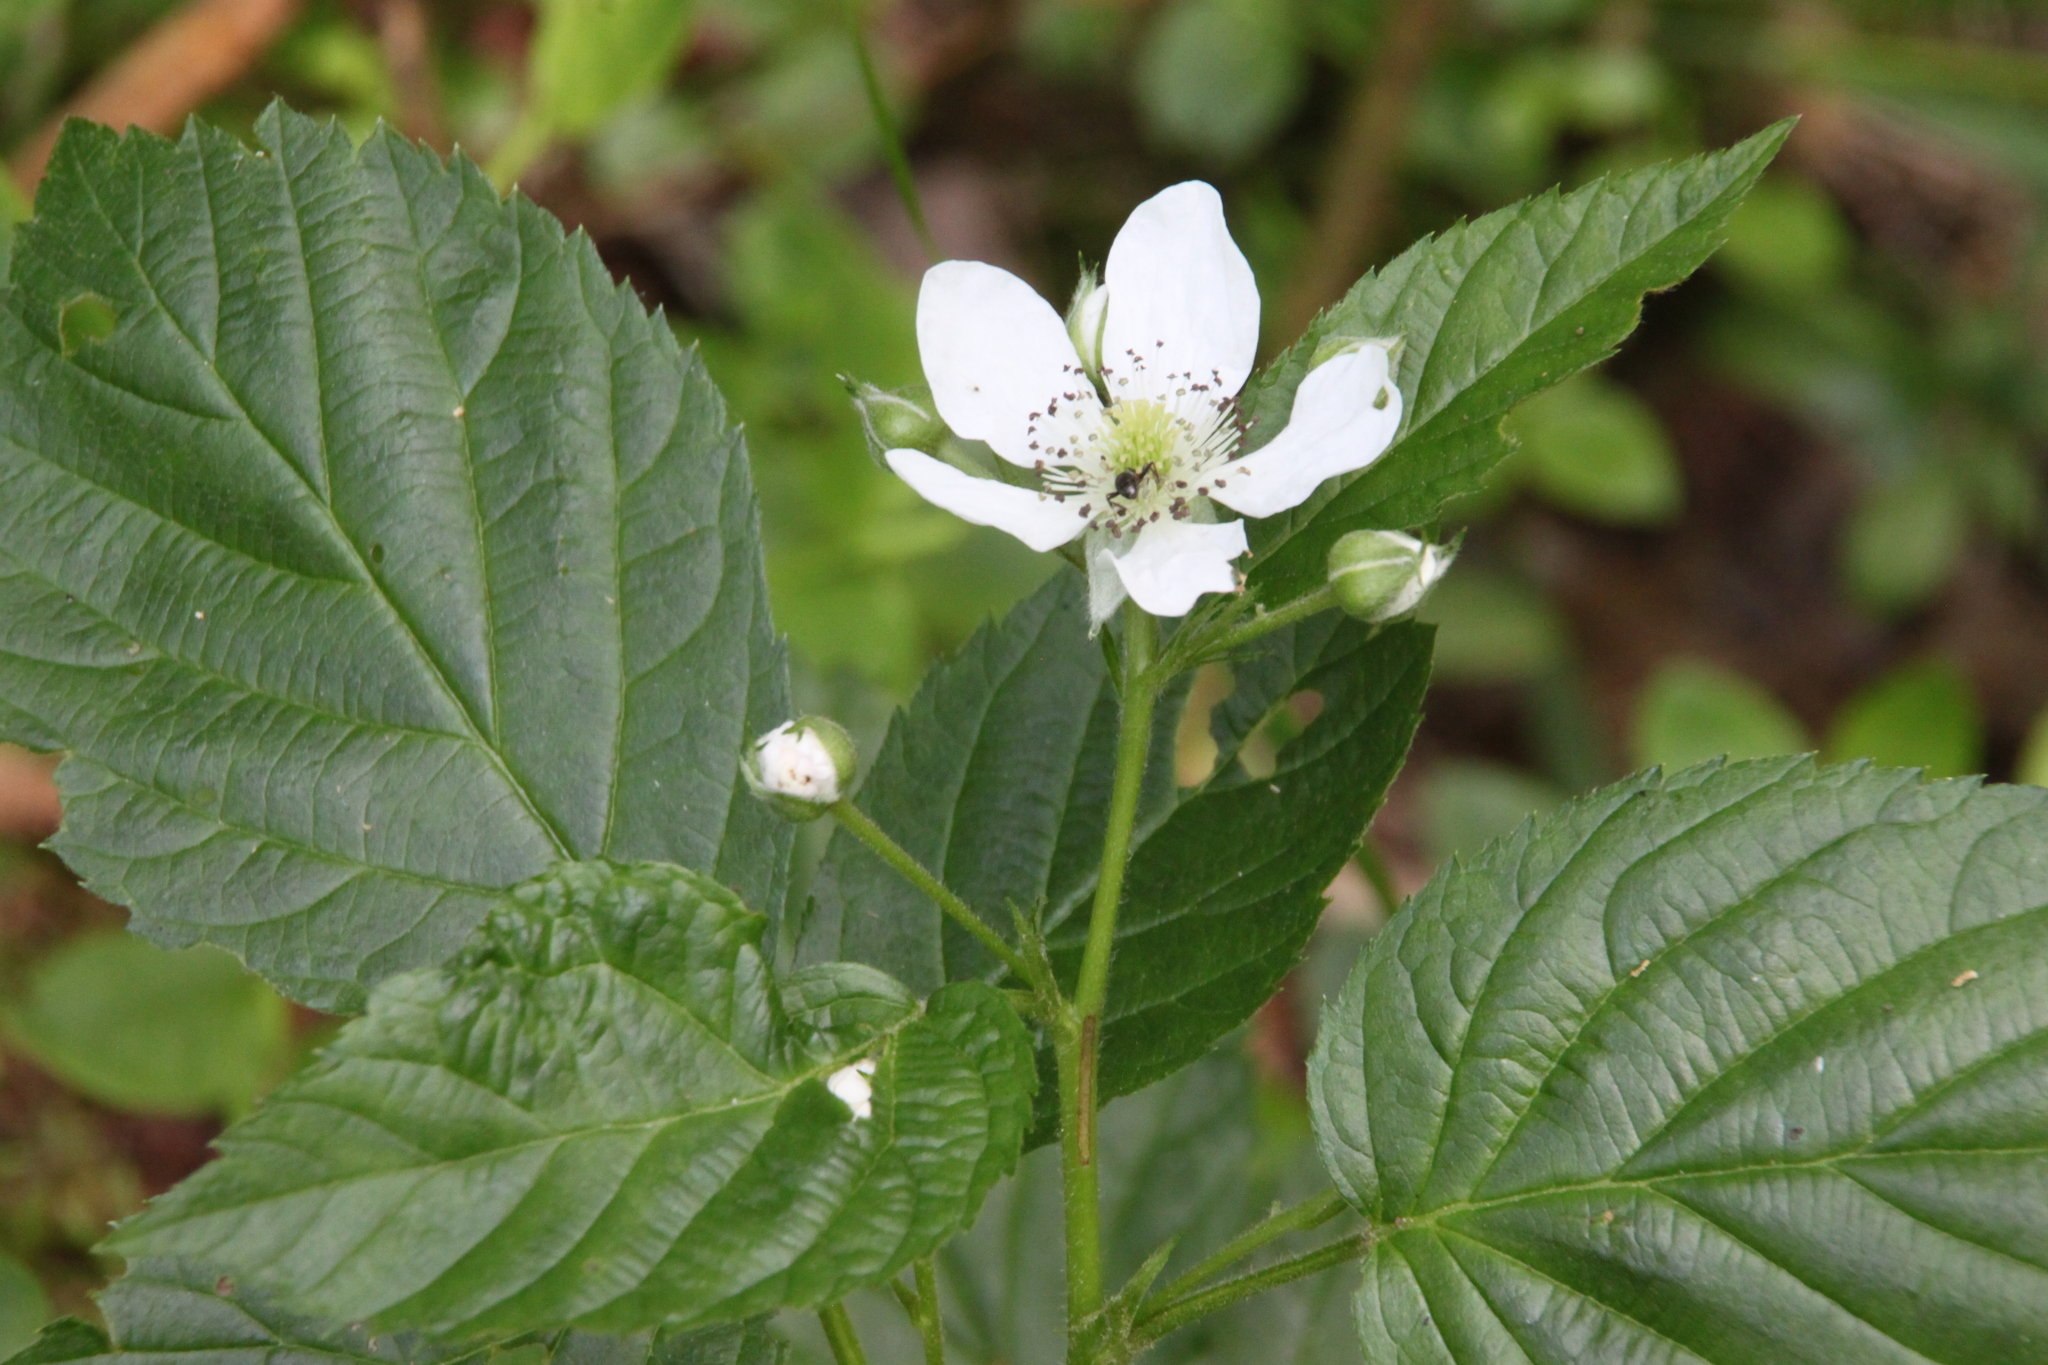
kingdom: Plantae
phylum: Tracheophyta
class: Magnoliopsida
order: Rosales
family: Rosaceae
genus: Rubus
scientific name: Rubus polonicus
